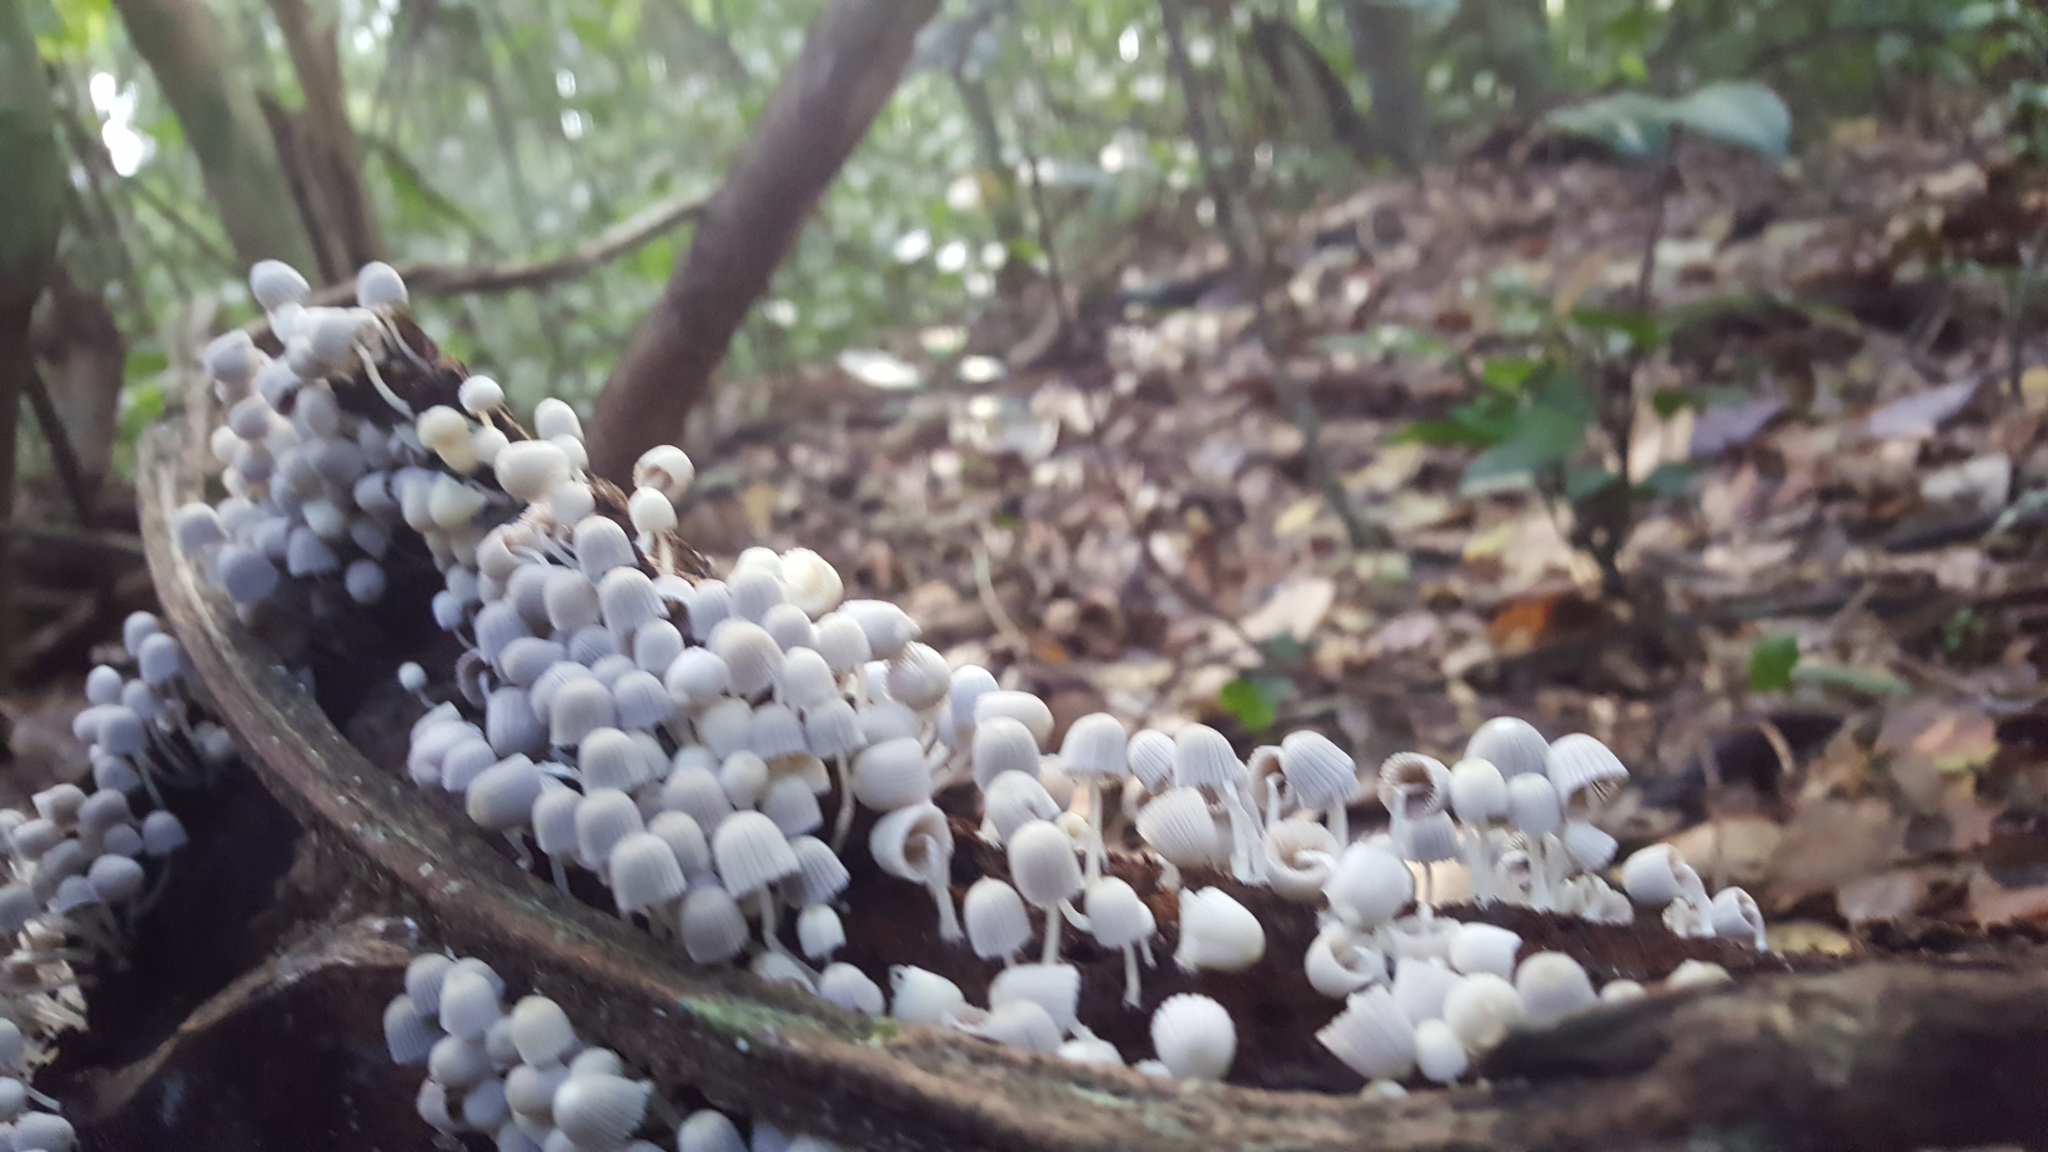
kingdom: Fungi
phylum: Basidiomycota
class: Agaricomycetes
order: Agaricales
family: Psathyrellaceae
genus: Coprinellus
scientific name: Coprinellus disseminatus
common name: Fairies' bonnets
